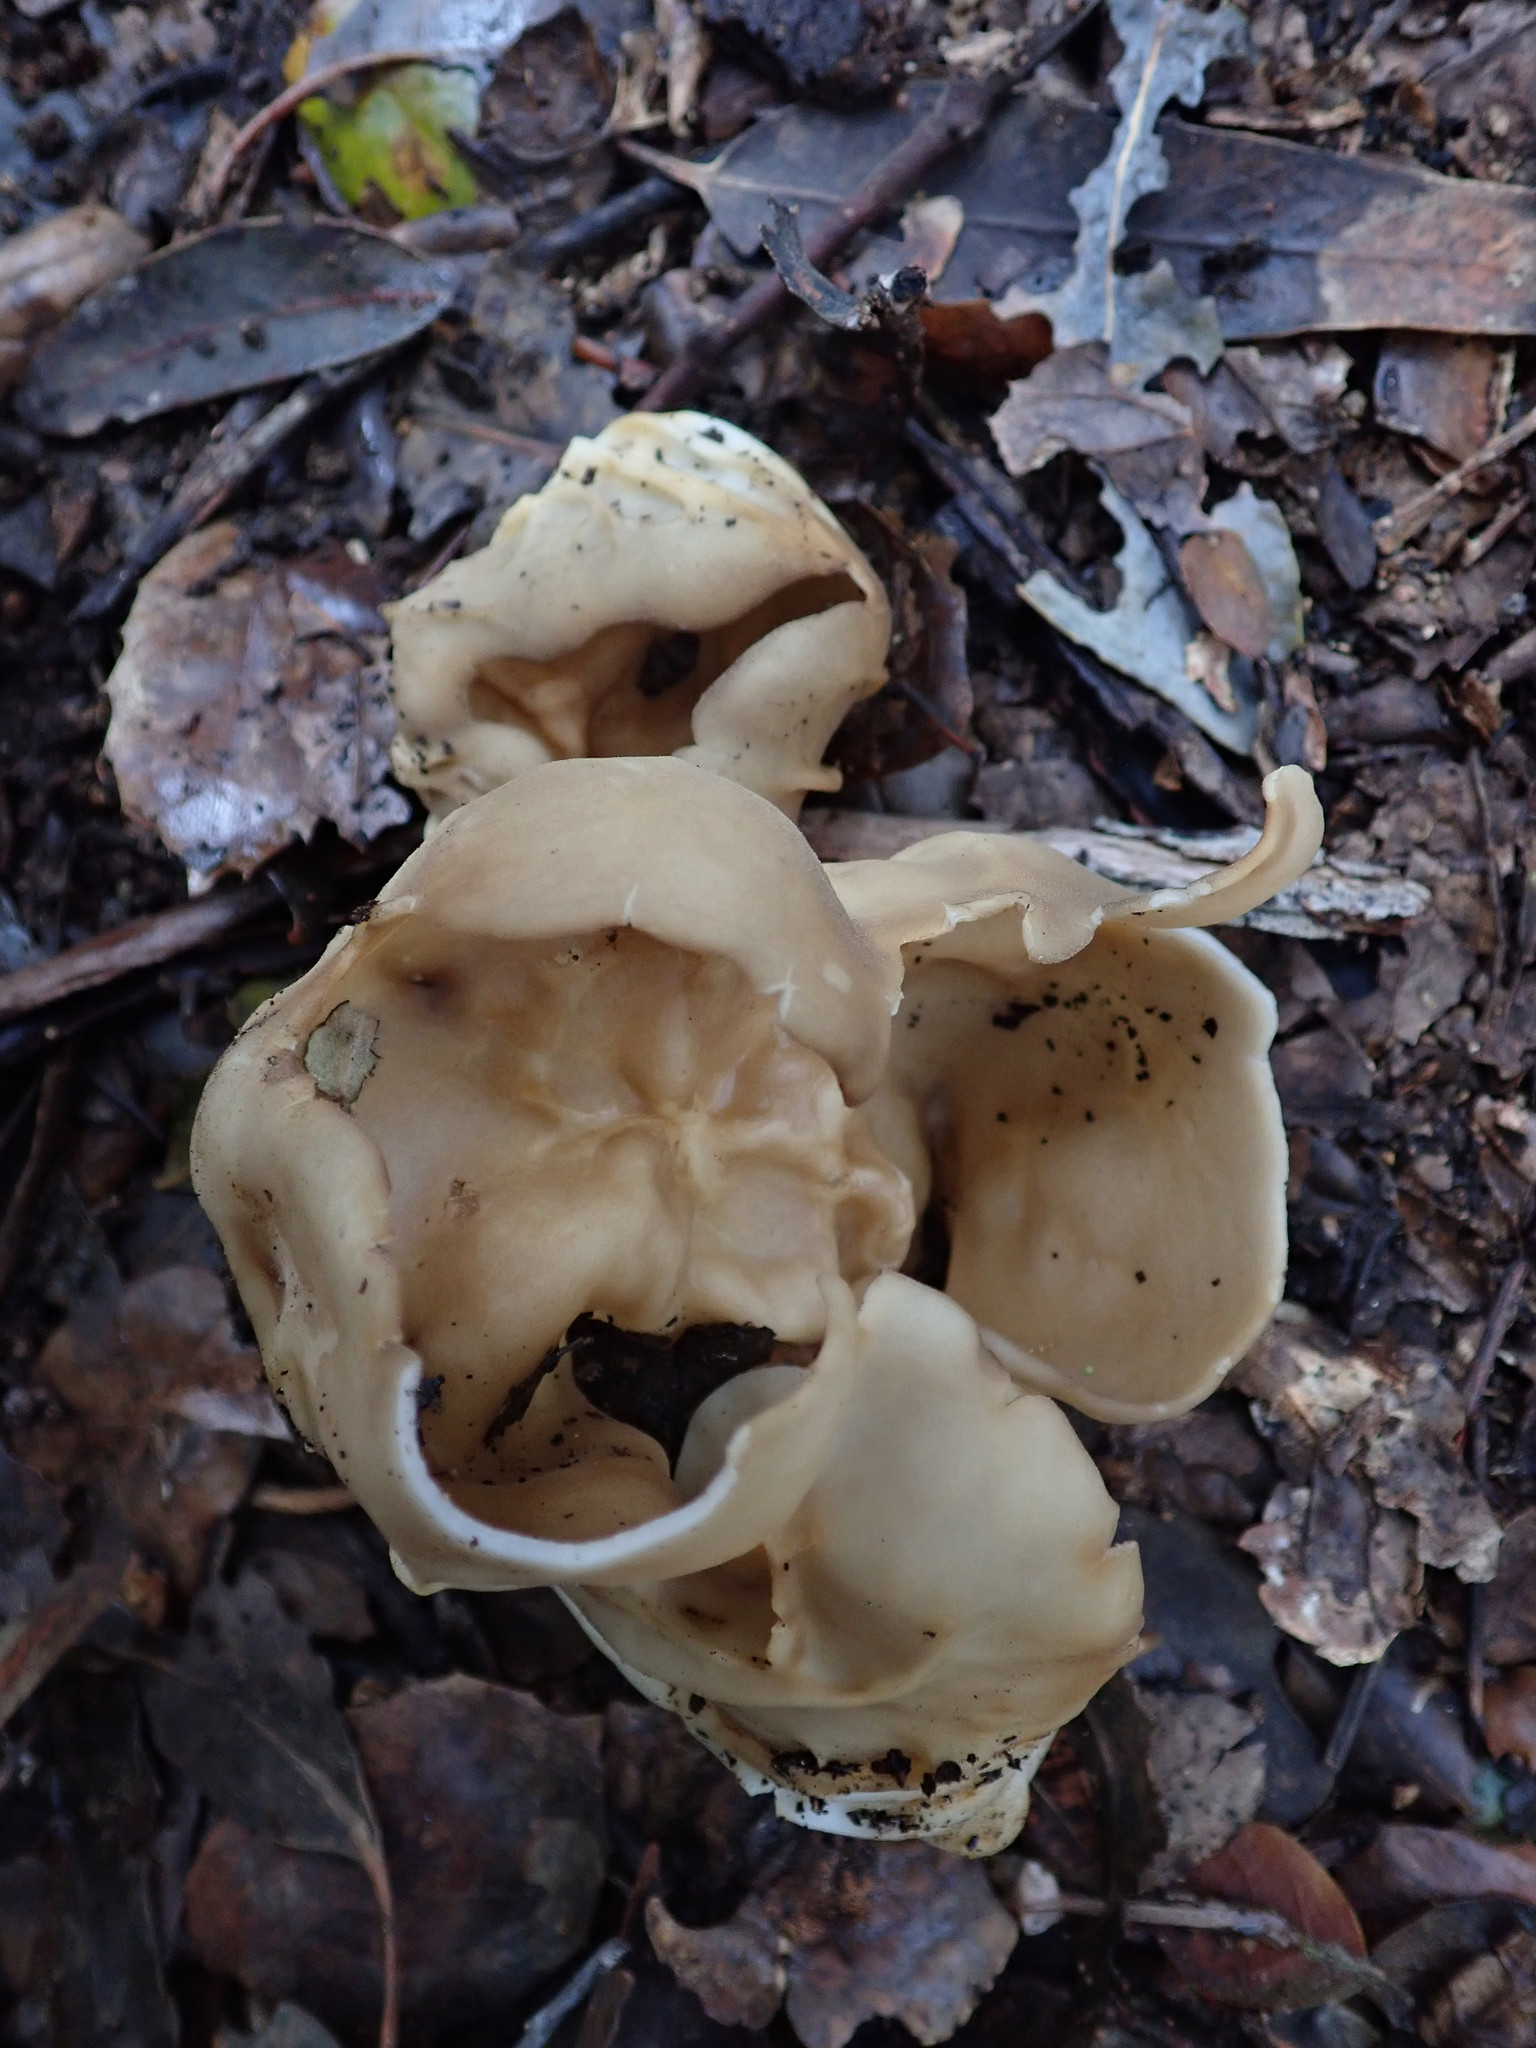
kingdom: Fungi
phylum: Ascomycota
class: Pezizomycetes
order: Pezizales
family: Helvellaceae
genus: Helvella
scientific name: Helvella acetabulum
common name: Vinegar cup
